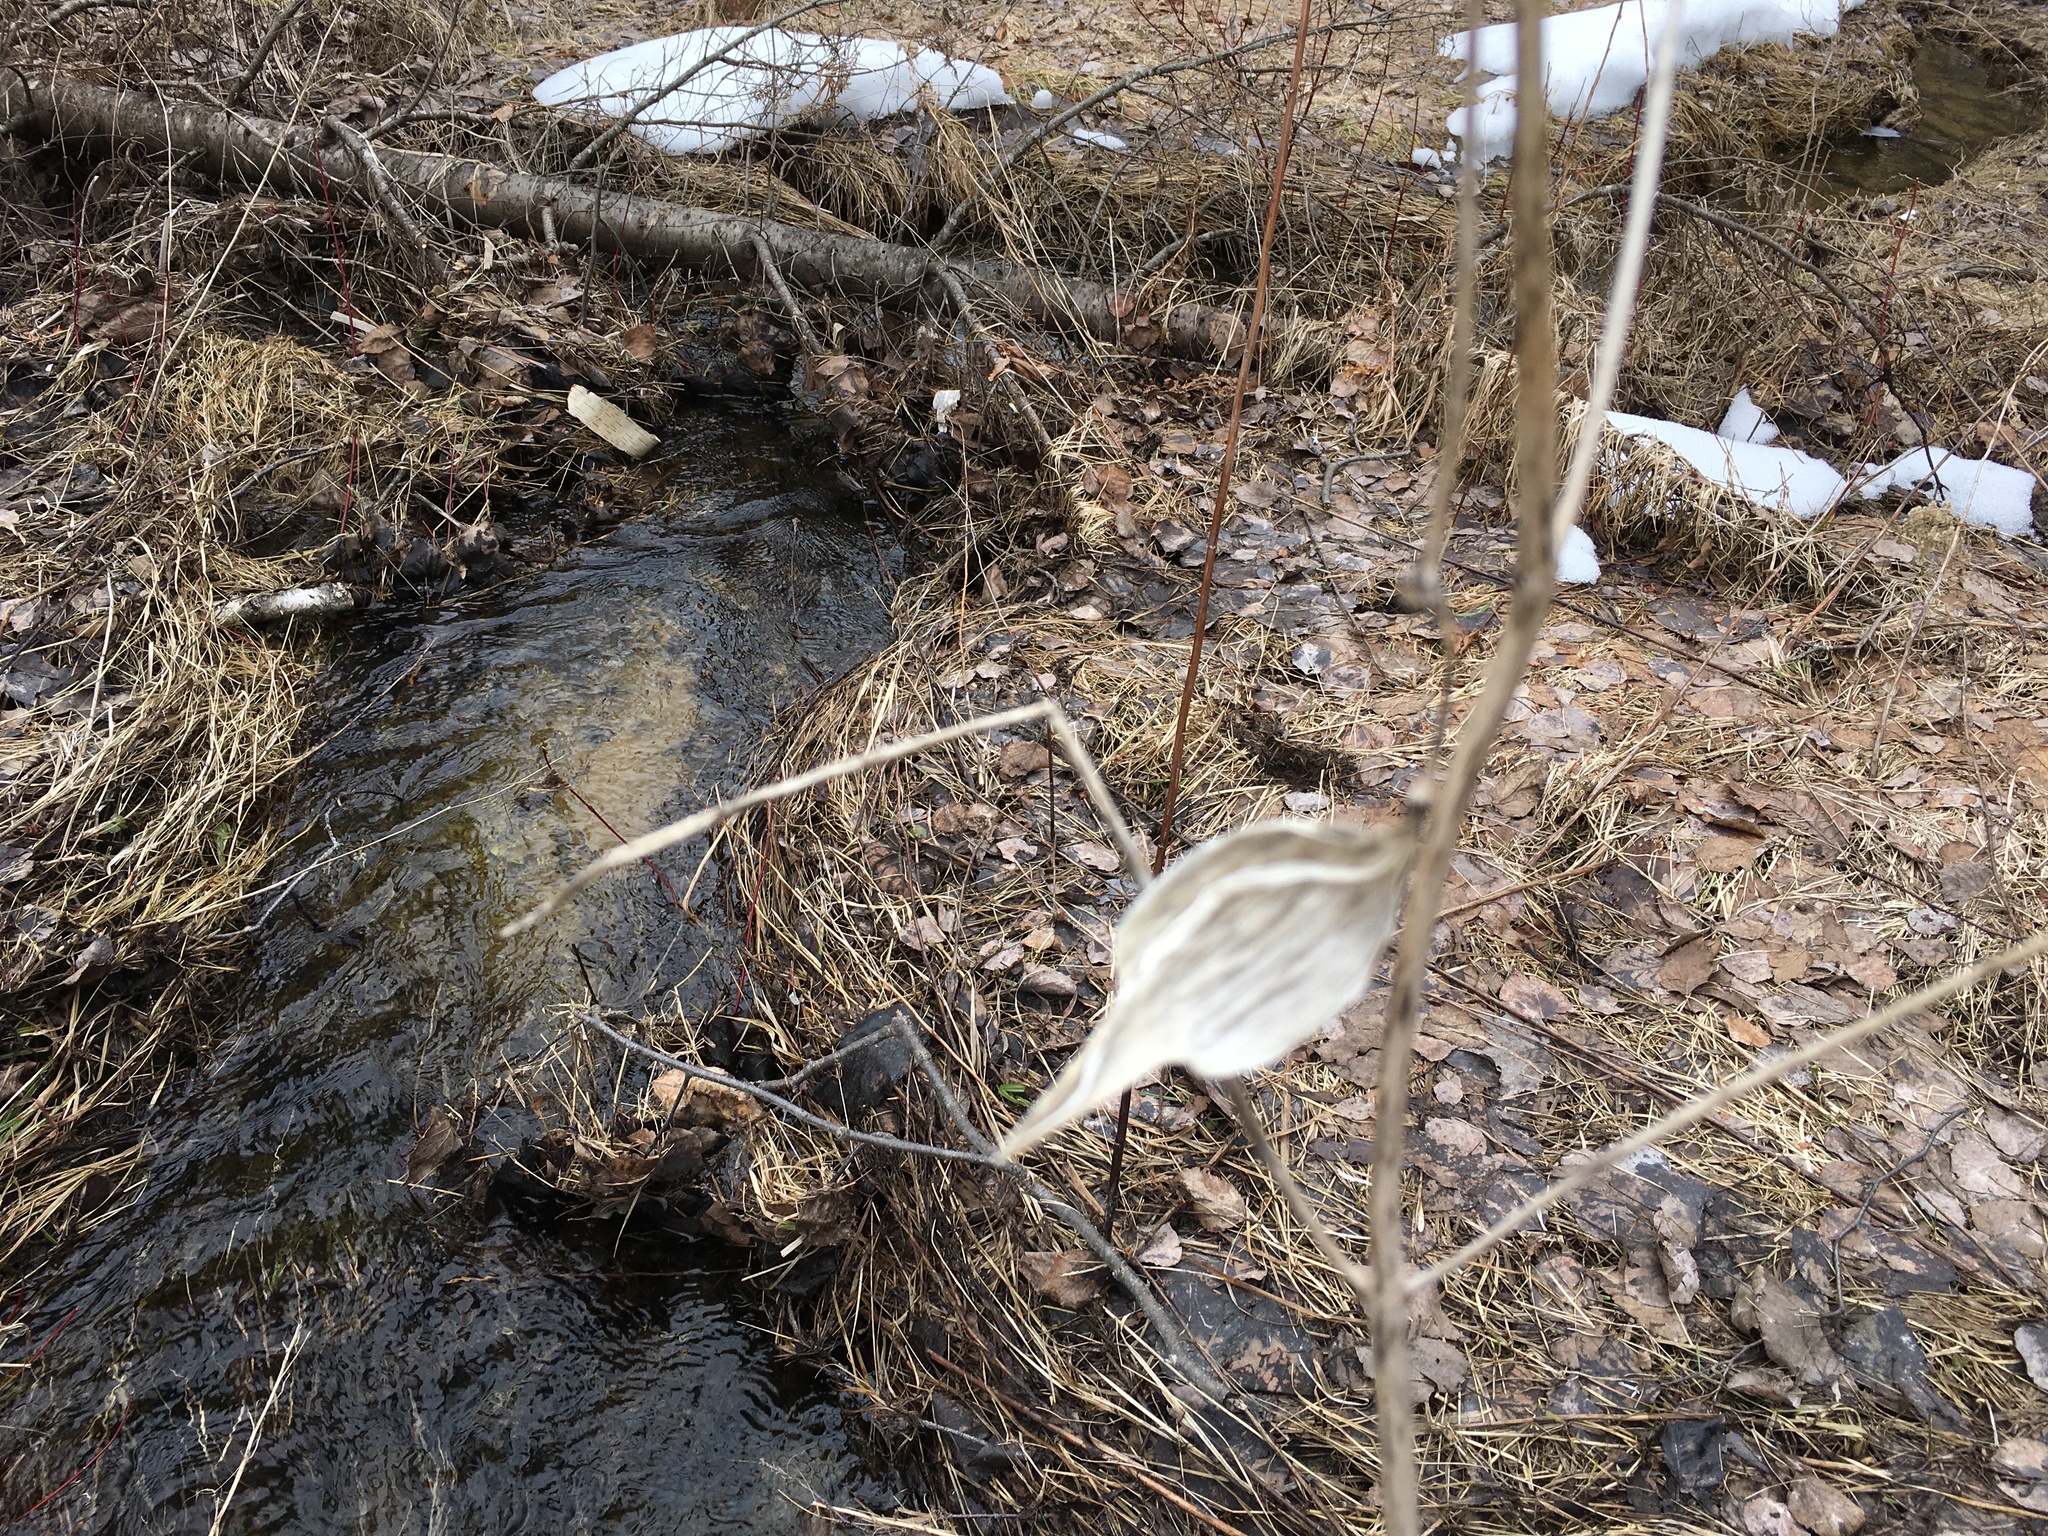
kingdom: Plantae
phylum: Tracheophyta
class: Magnoliopsida
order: Gentianales
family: Apocynaceae
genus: Asclepias
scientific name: Asclepias incarnata
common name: Swamp milkweed
